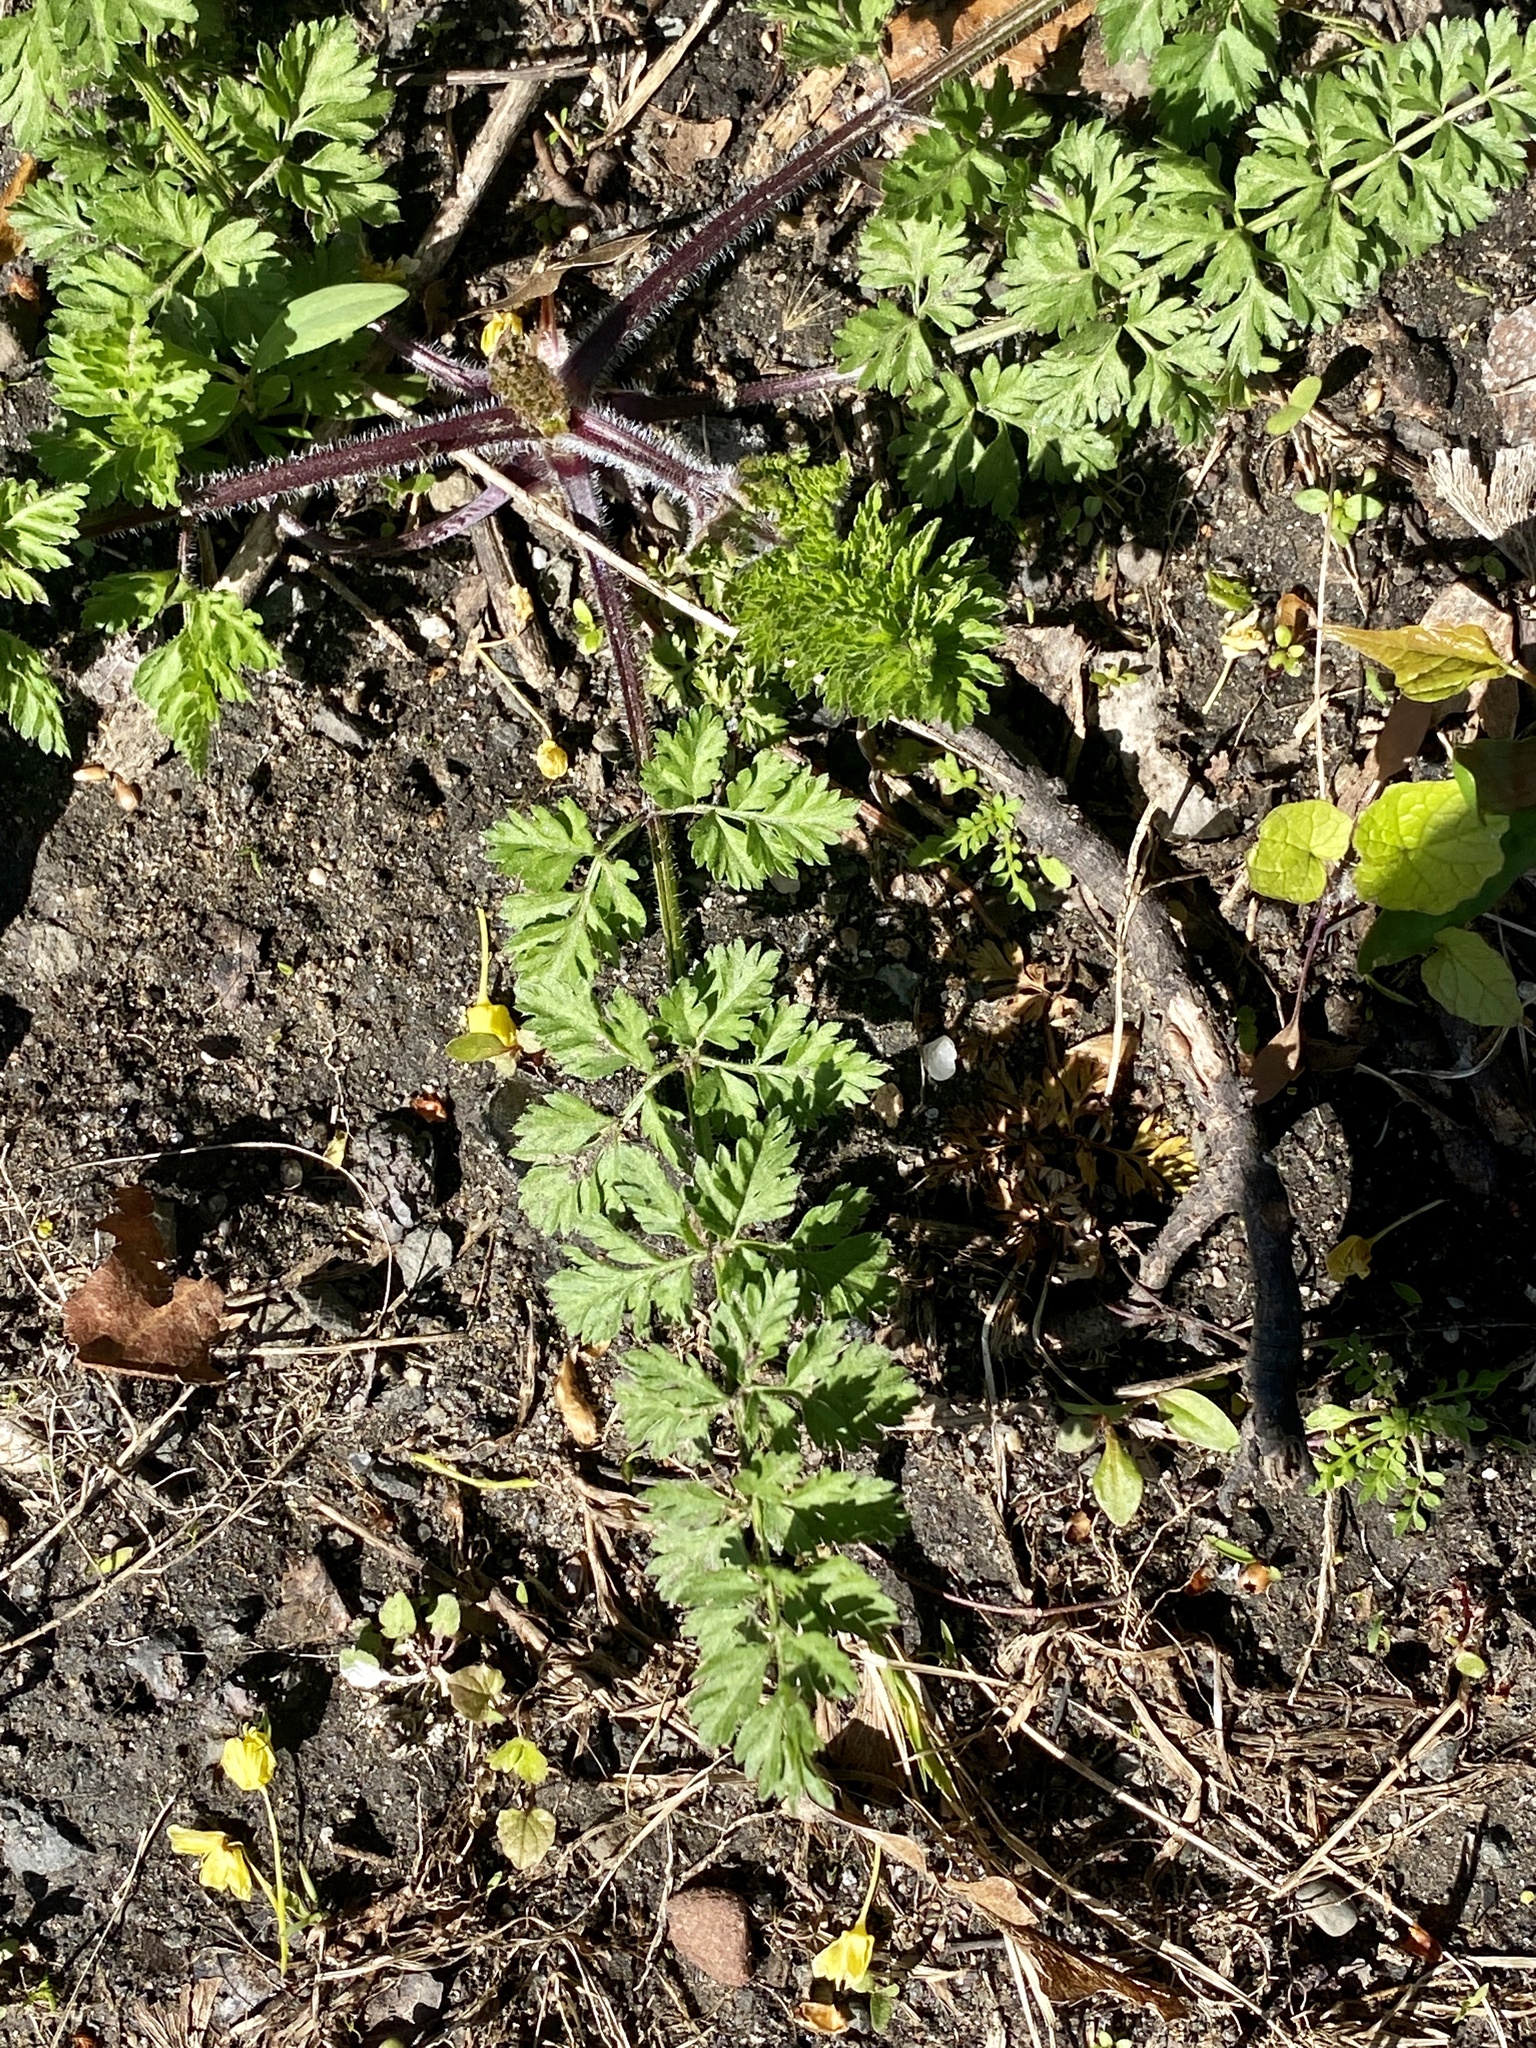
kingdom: Plantae
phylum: Tracheophyta
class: Magnoliopsida
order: Apiales
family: Apiaceae
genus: Daucus
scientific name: Daucus carota
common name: Wild carrot
